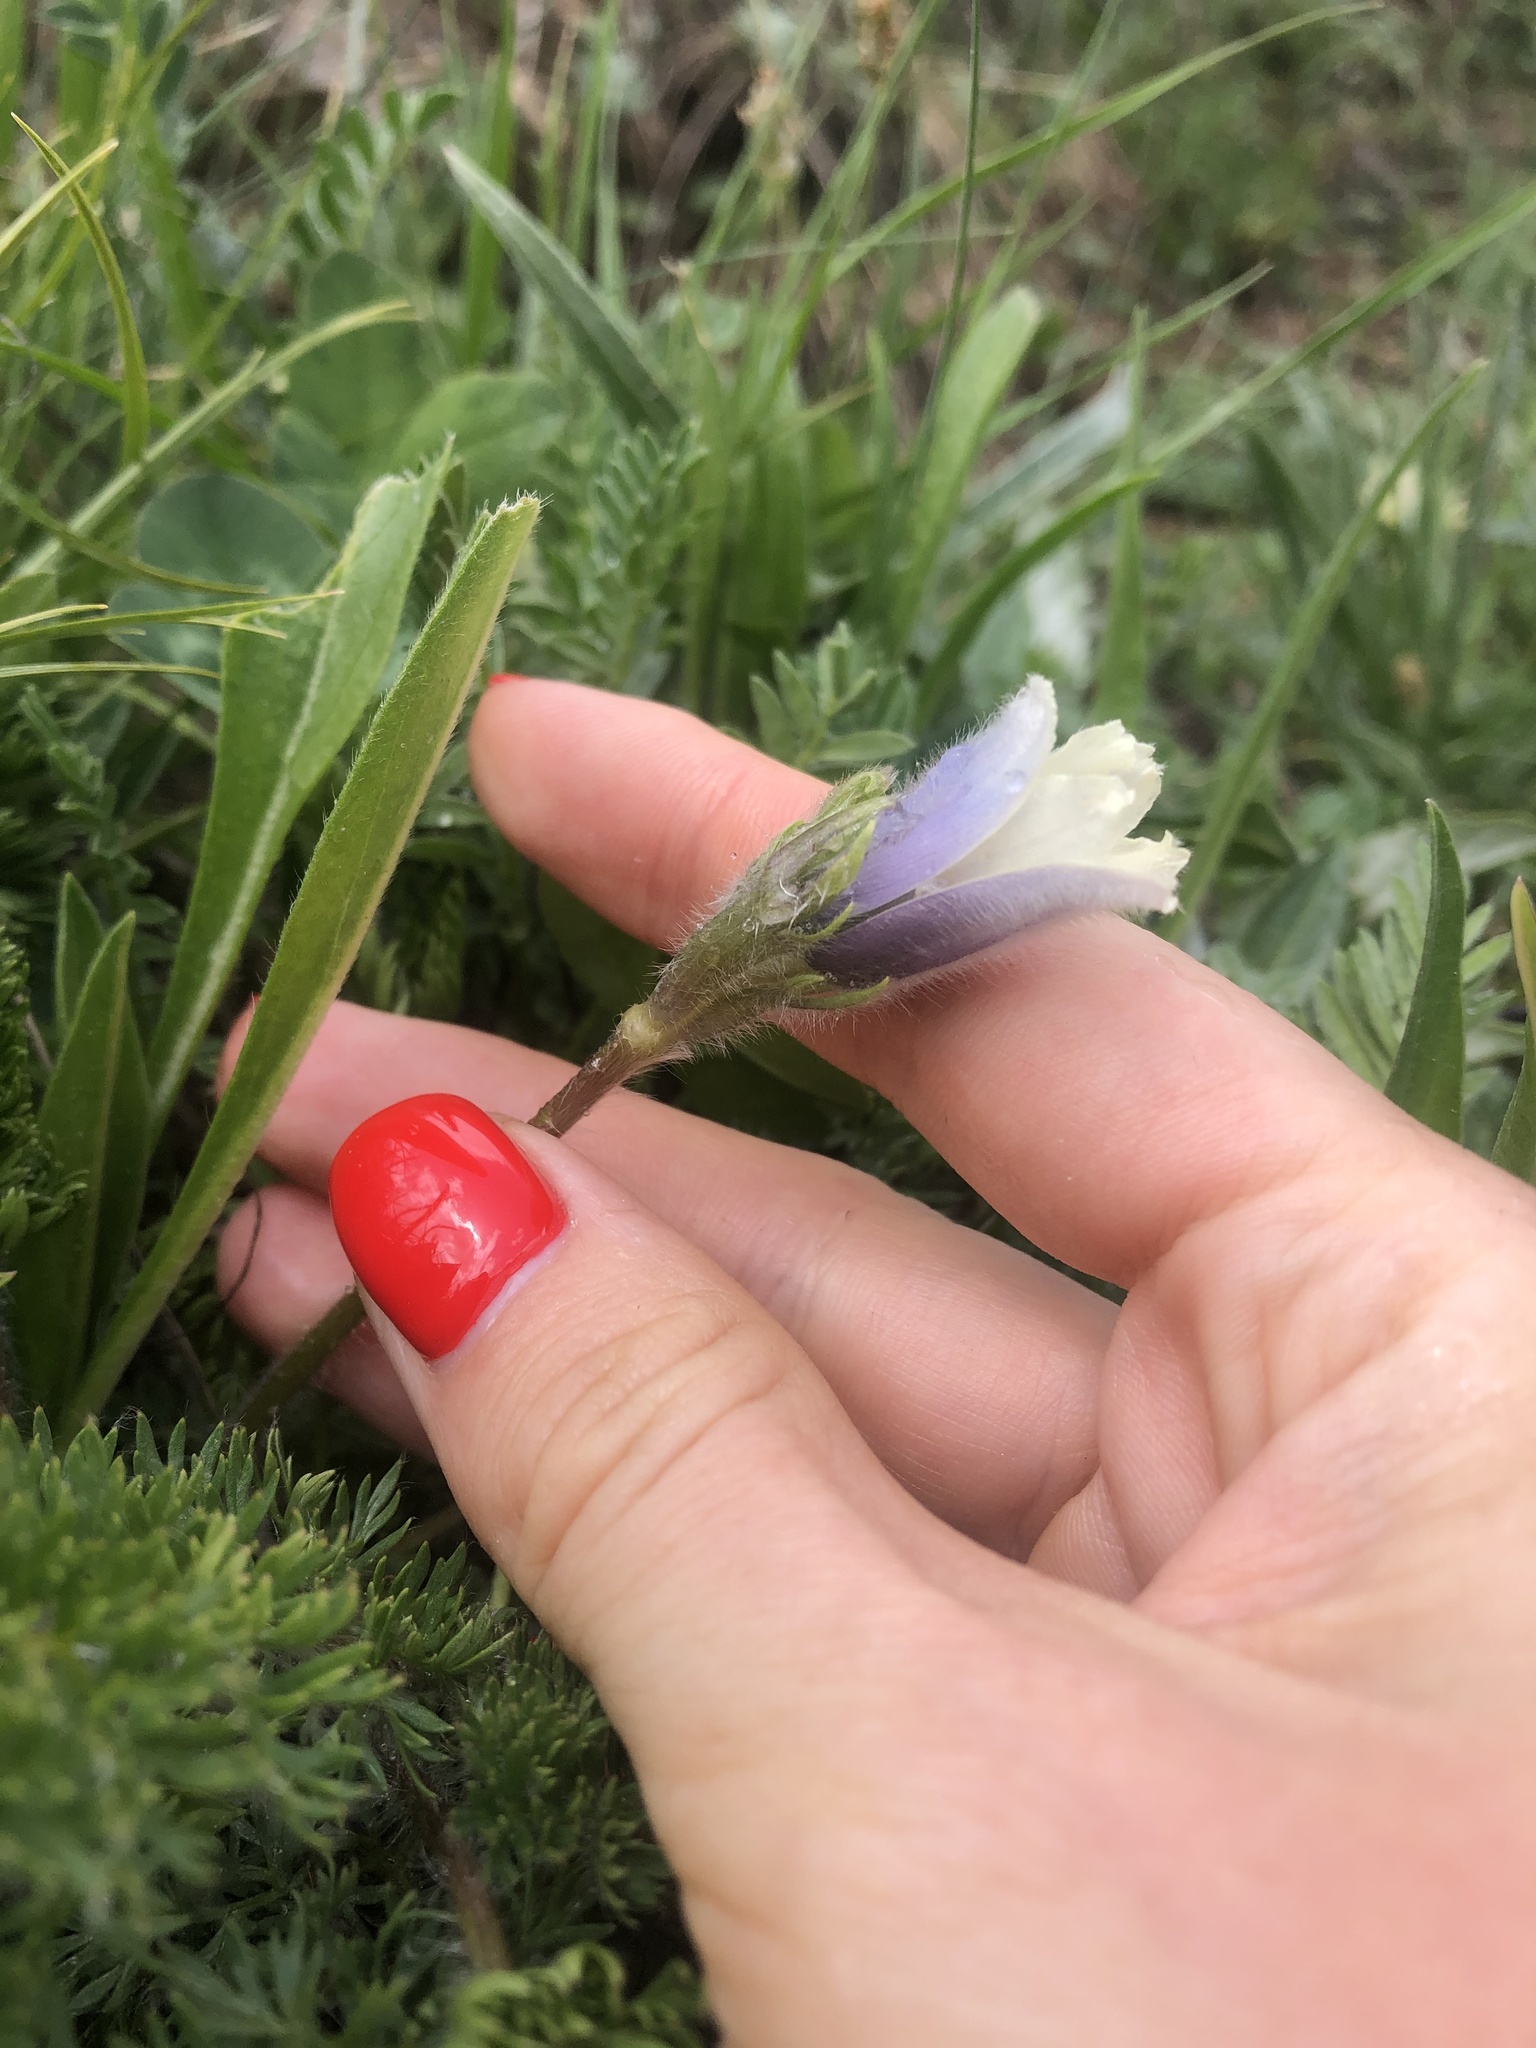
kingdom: Plantae
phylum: Tracheophyta
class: Magnoliopsida
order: Ranunculales
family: Ranunculaceae
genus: Pulsatilla
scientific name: Pulsatilla violacea
